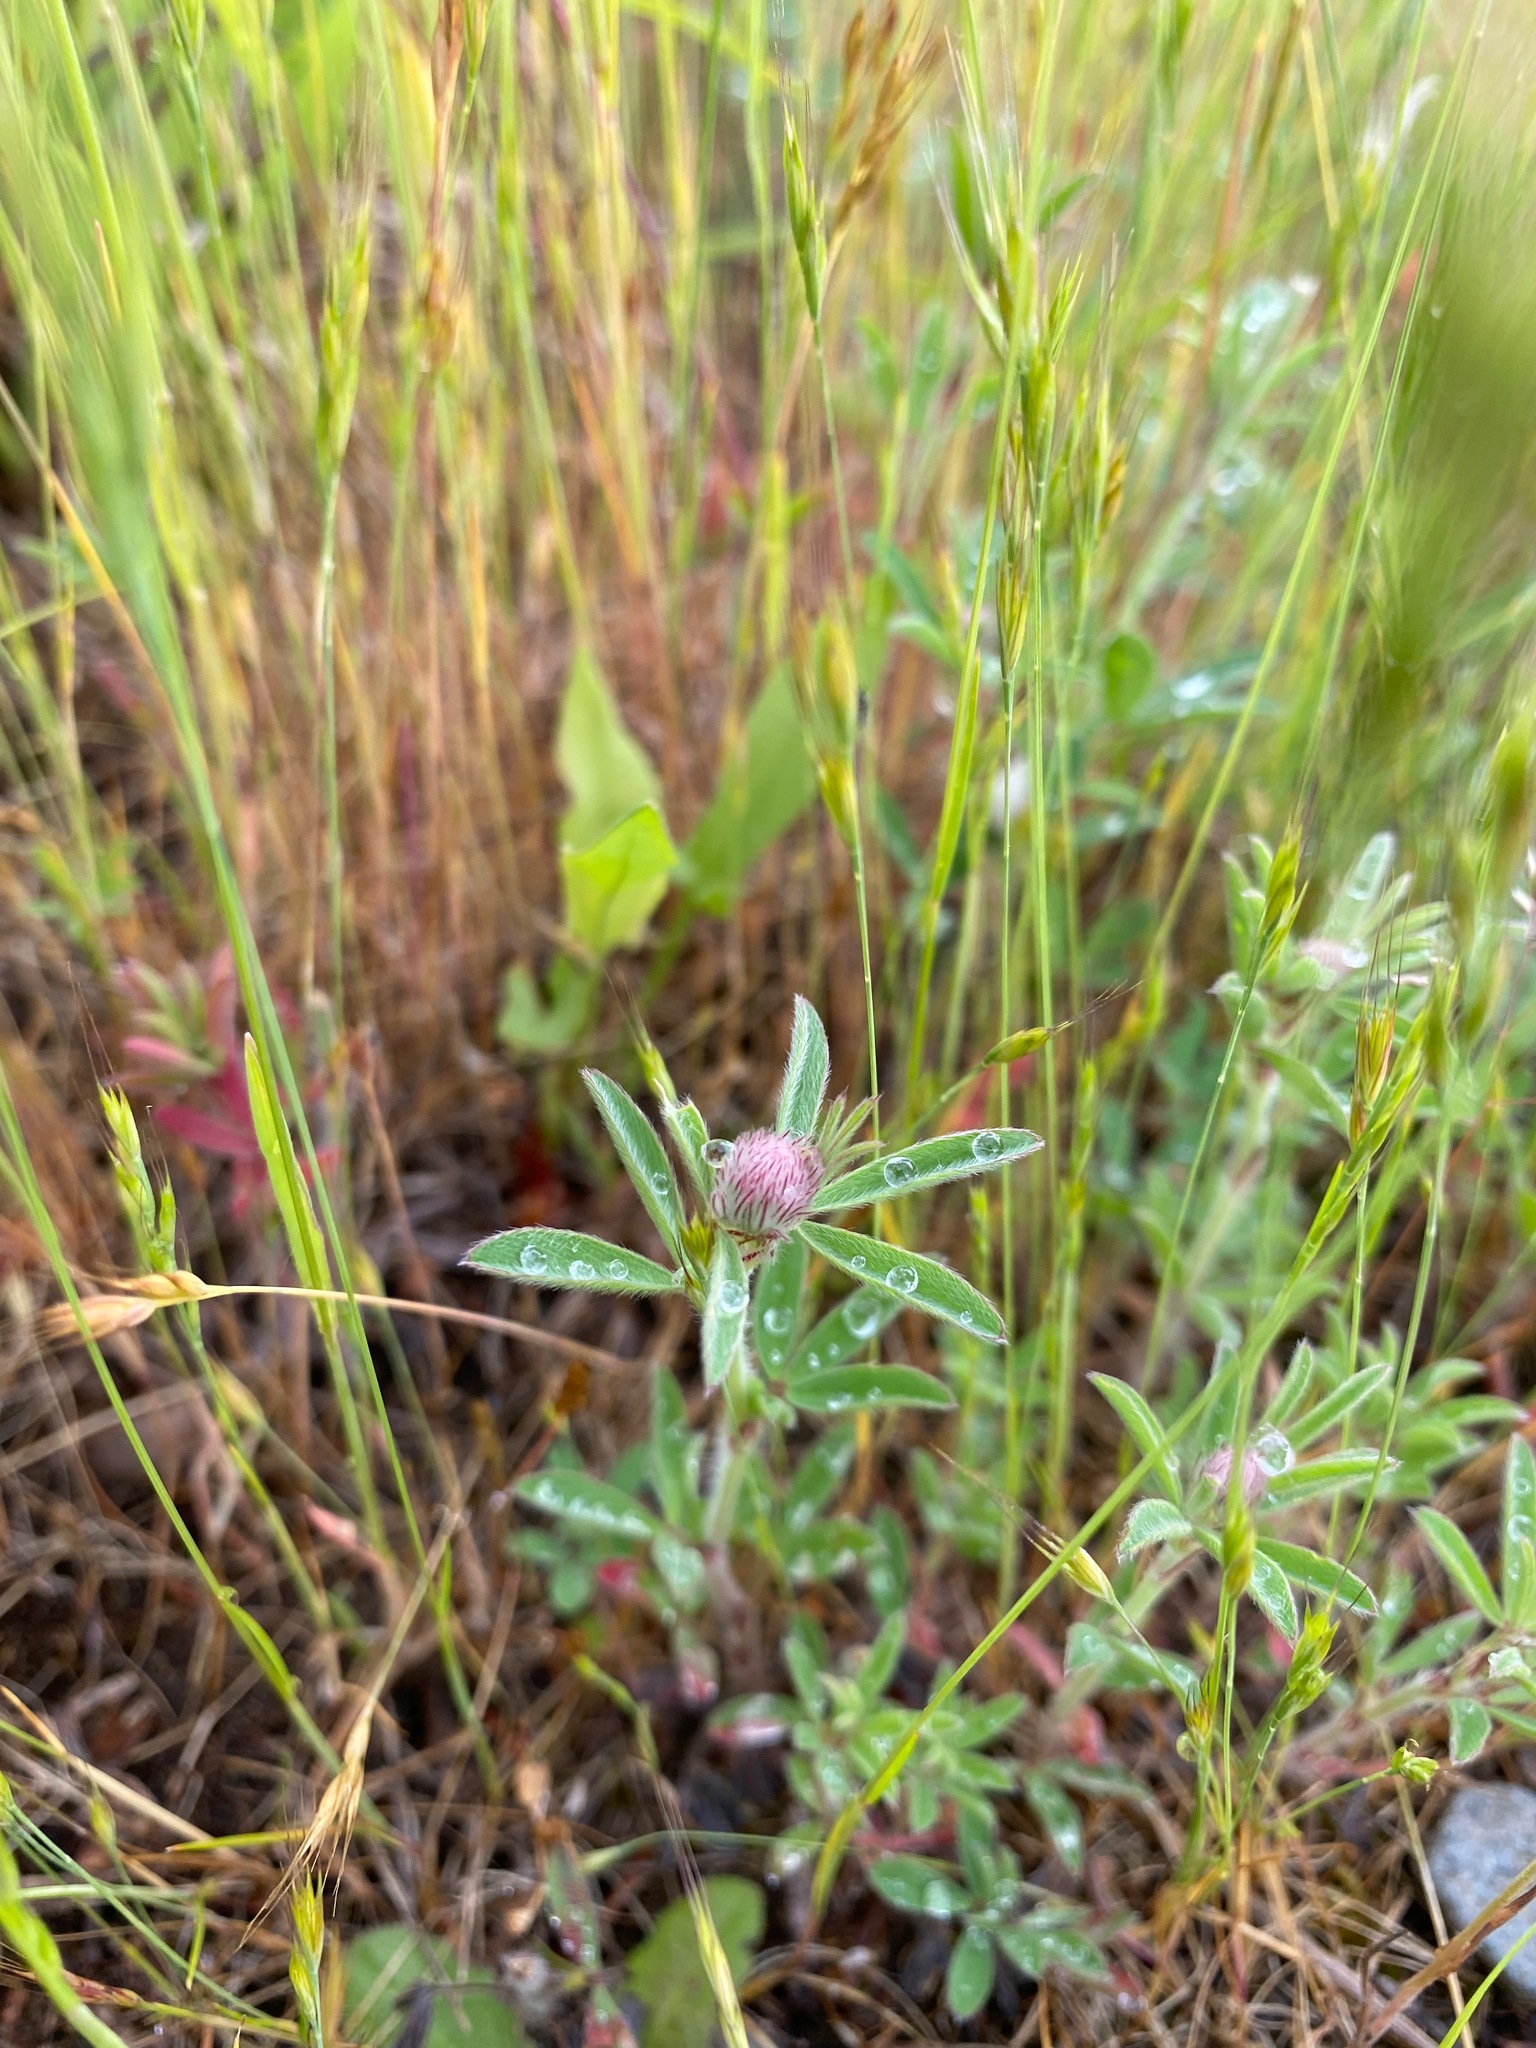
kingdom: Plantae
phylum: Tracheophyta
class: Magnoliopsida
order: Fabales
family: Fabaceae
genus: Trifolium
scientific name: Trifolium arvense
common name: Hare's-foot clover
